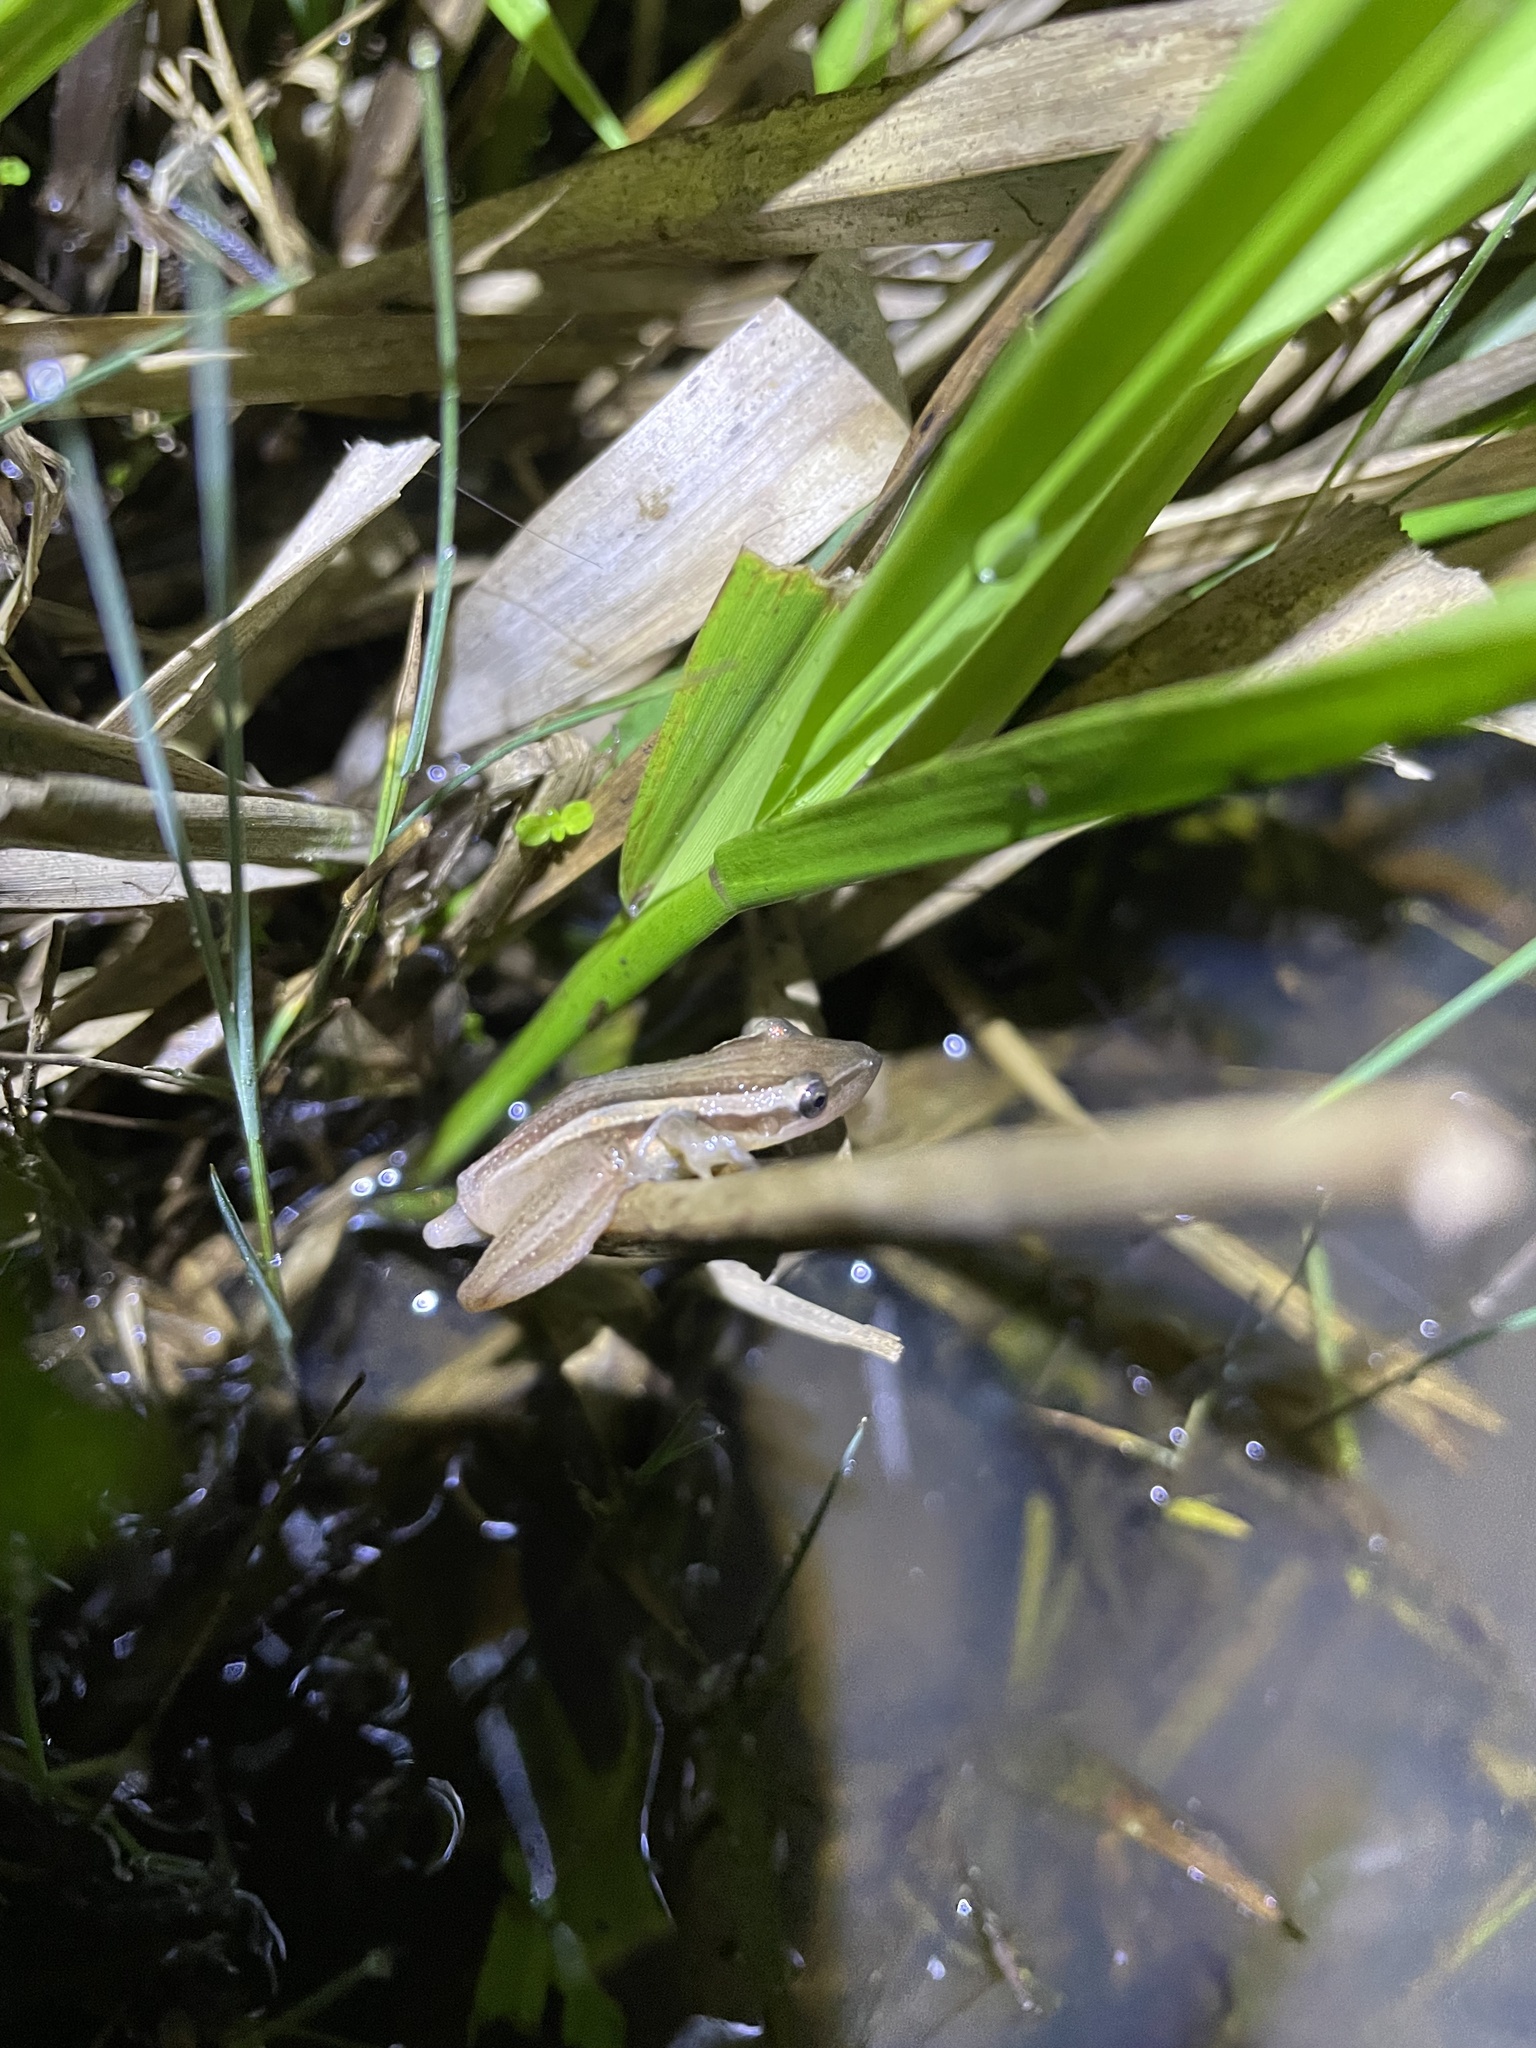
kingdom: Animalia
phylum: Chordata
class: Amphibia
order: Anura
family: Hylidae
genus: Scinax
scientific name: Scinax squalirostris
